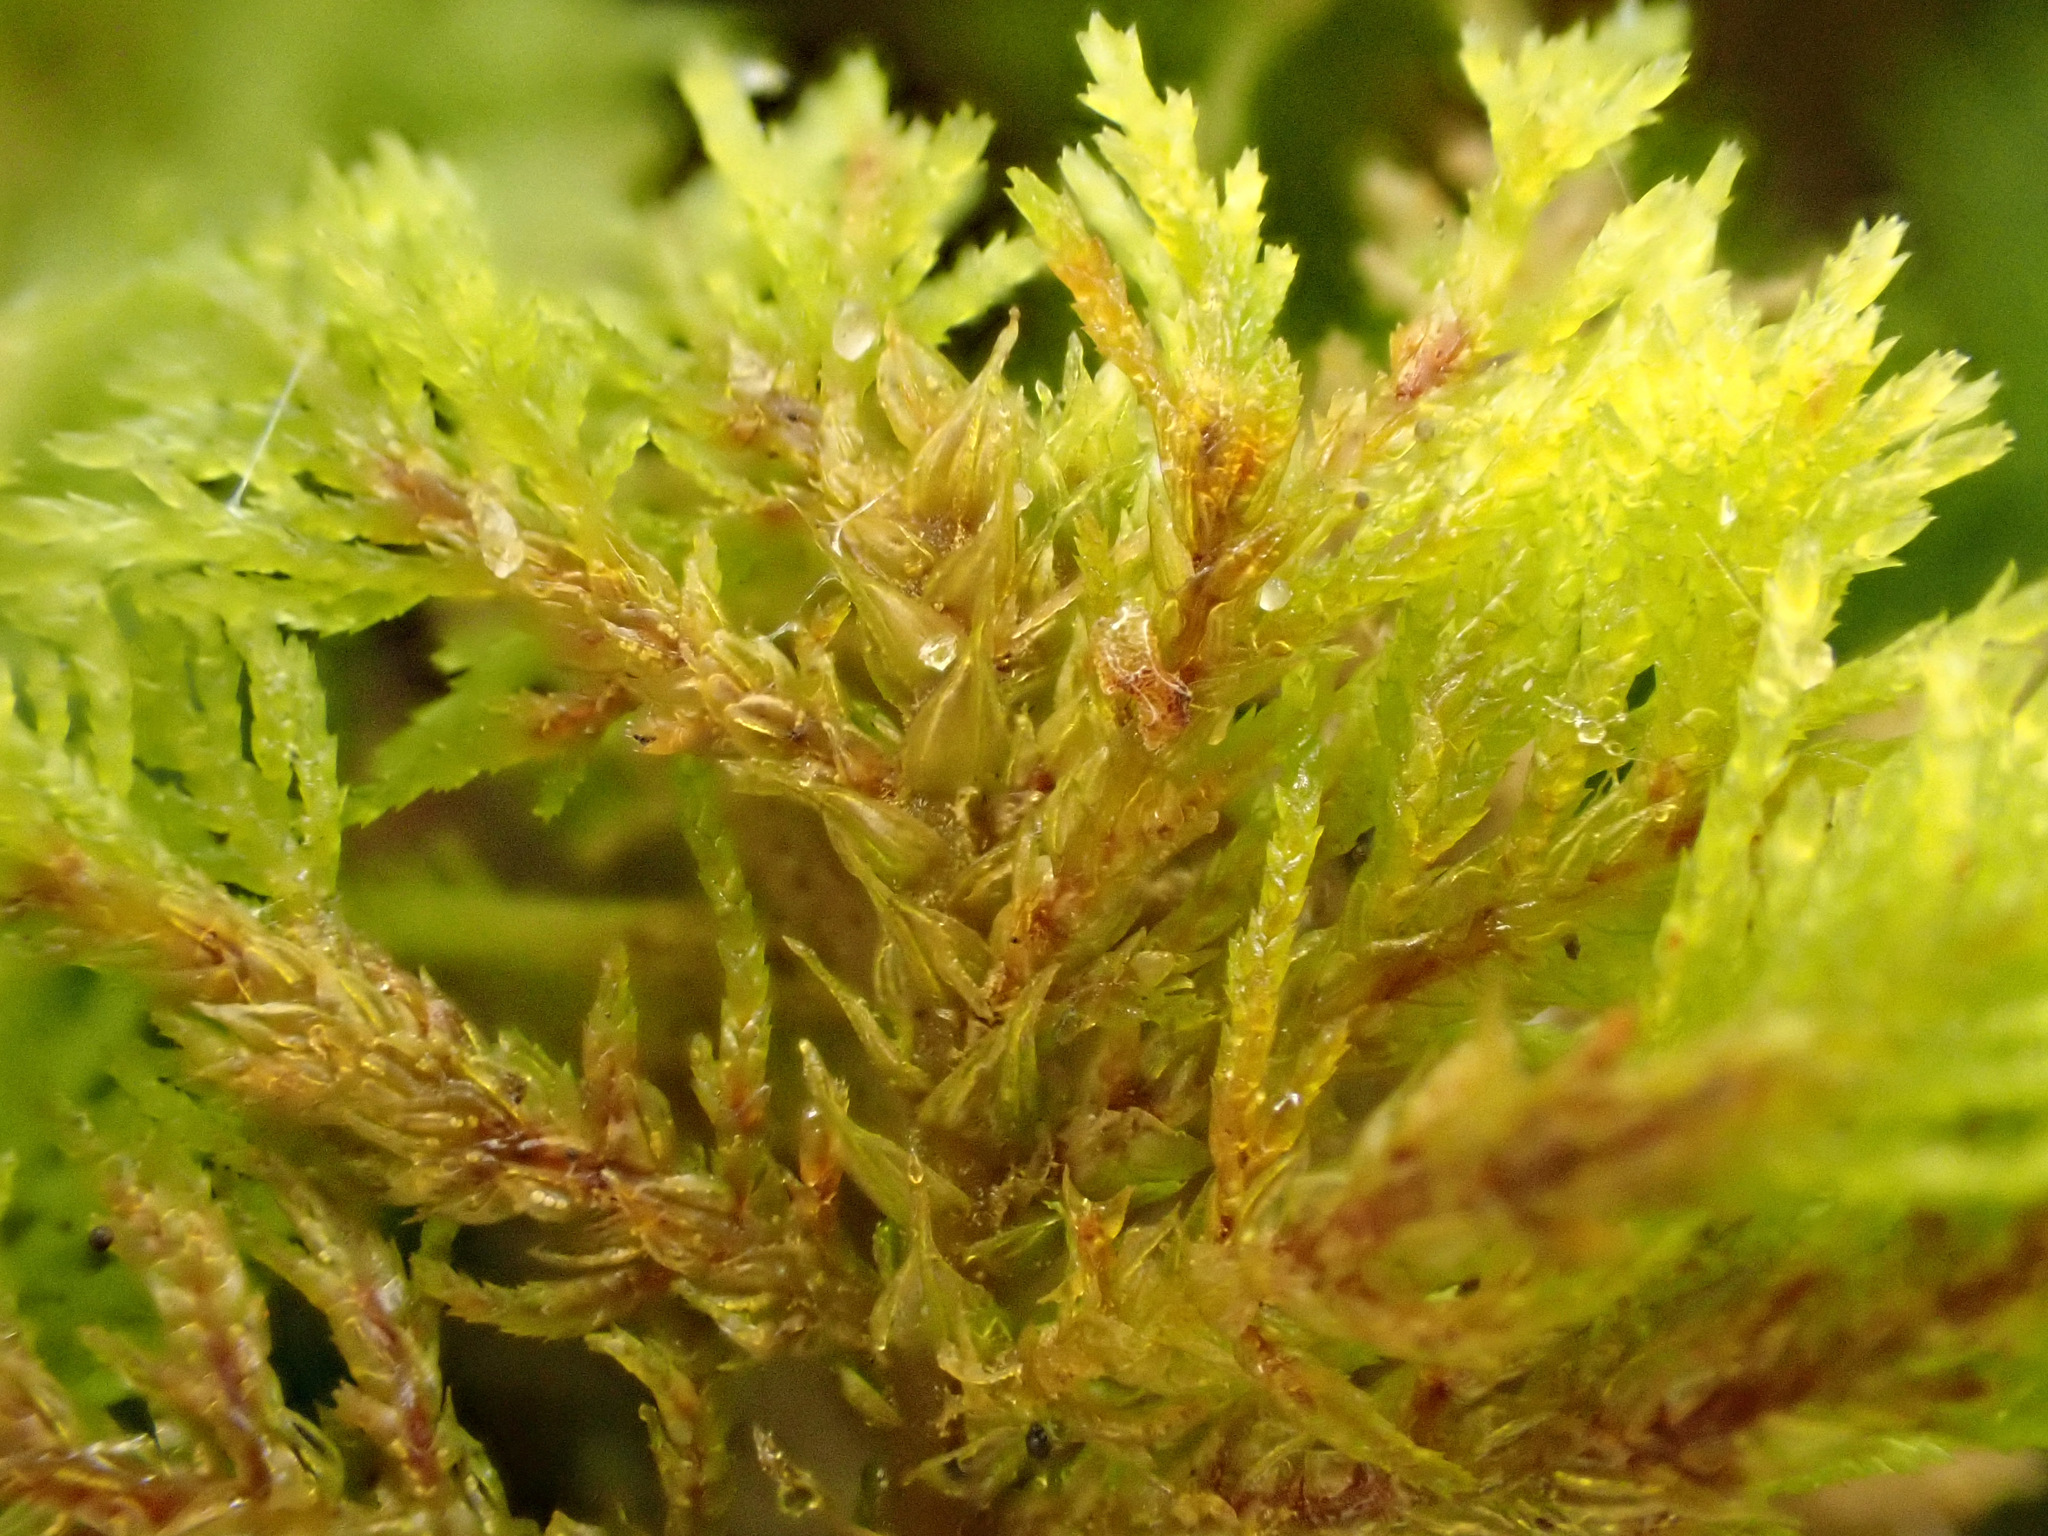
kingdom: Plantae
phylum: Bryophyta
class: Bryopsida
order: Hypnales
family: Thuidiaceae
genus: Thuidium
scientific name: Thuidium tamariscinum
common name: Common tamarisk-moss
